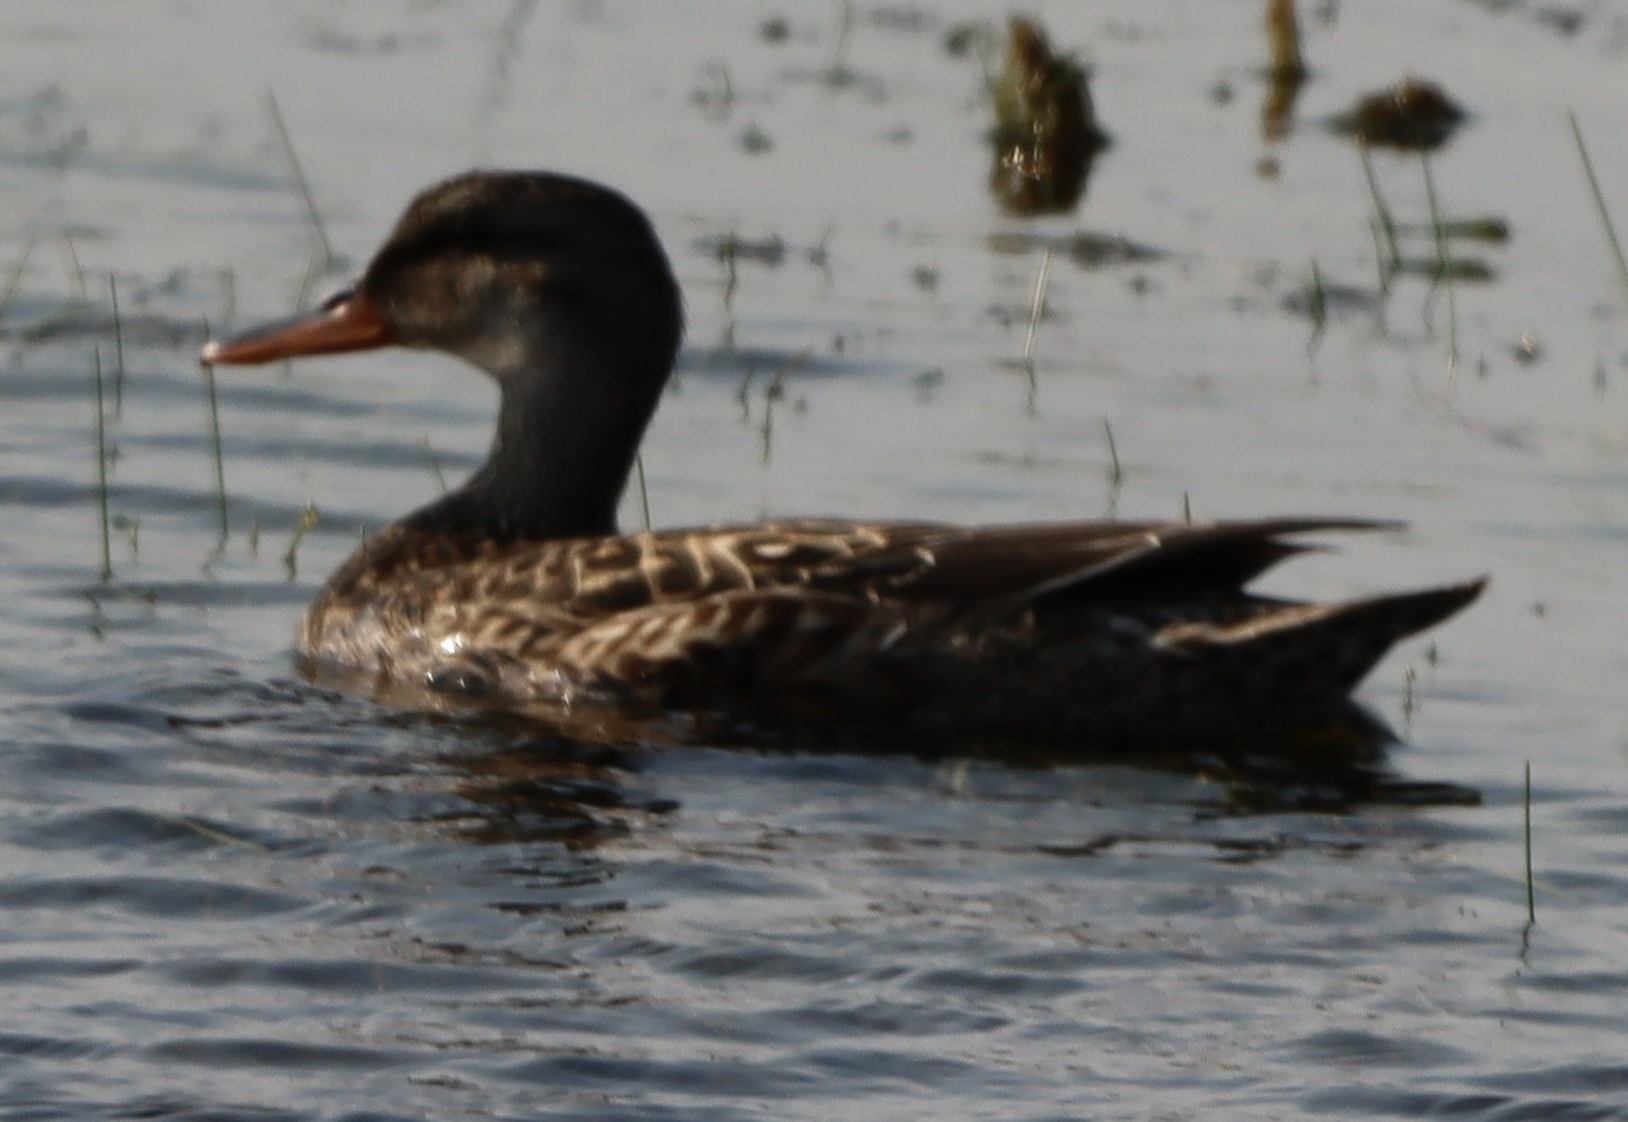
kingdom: Animalia
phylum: Chordata
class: Aves
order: Anseriformes
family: Anatidae
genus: Mareca
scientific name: Mareca strepera
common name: Gadwall
